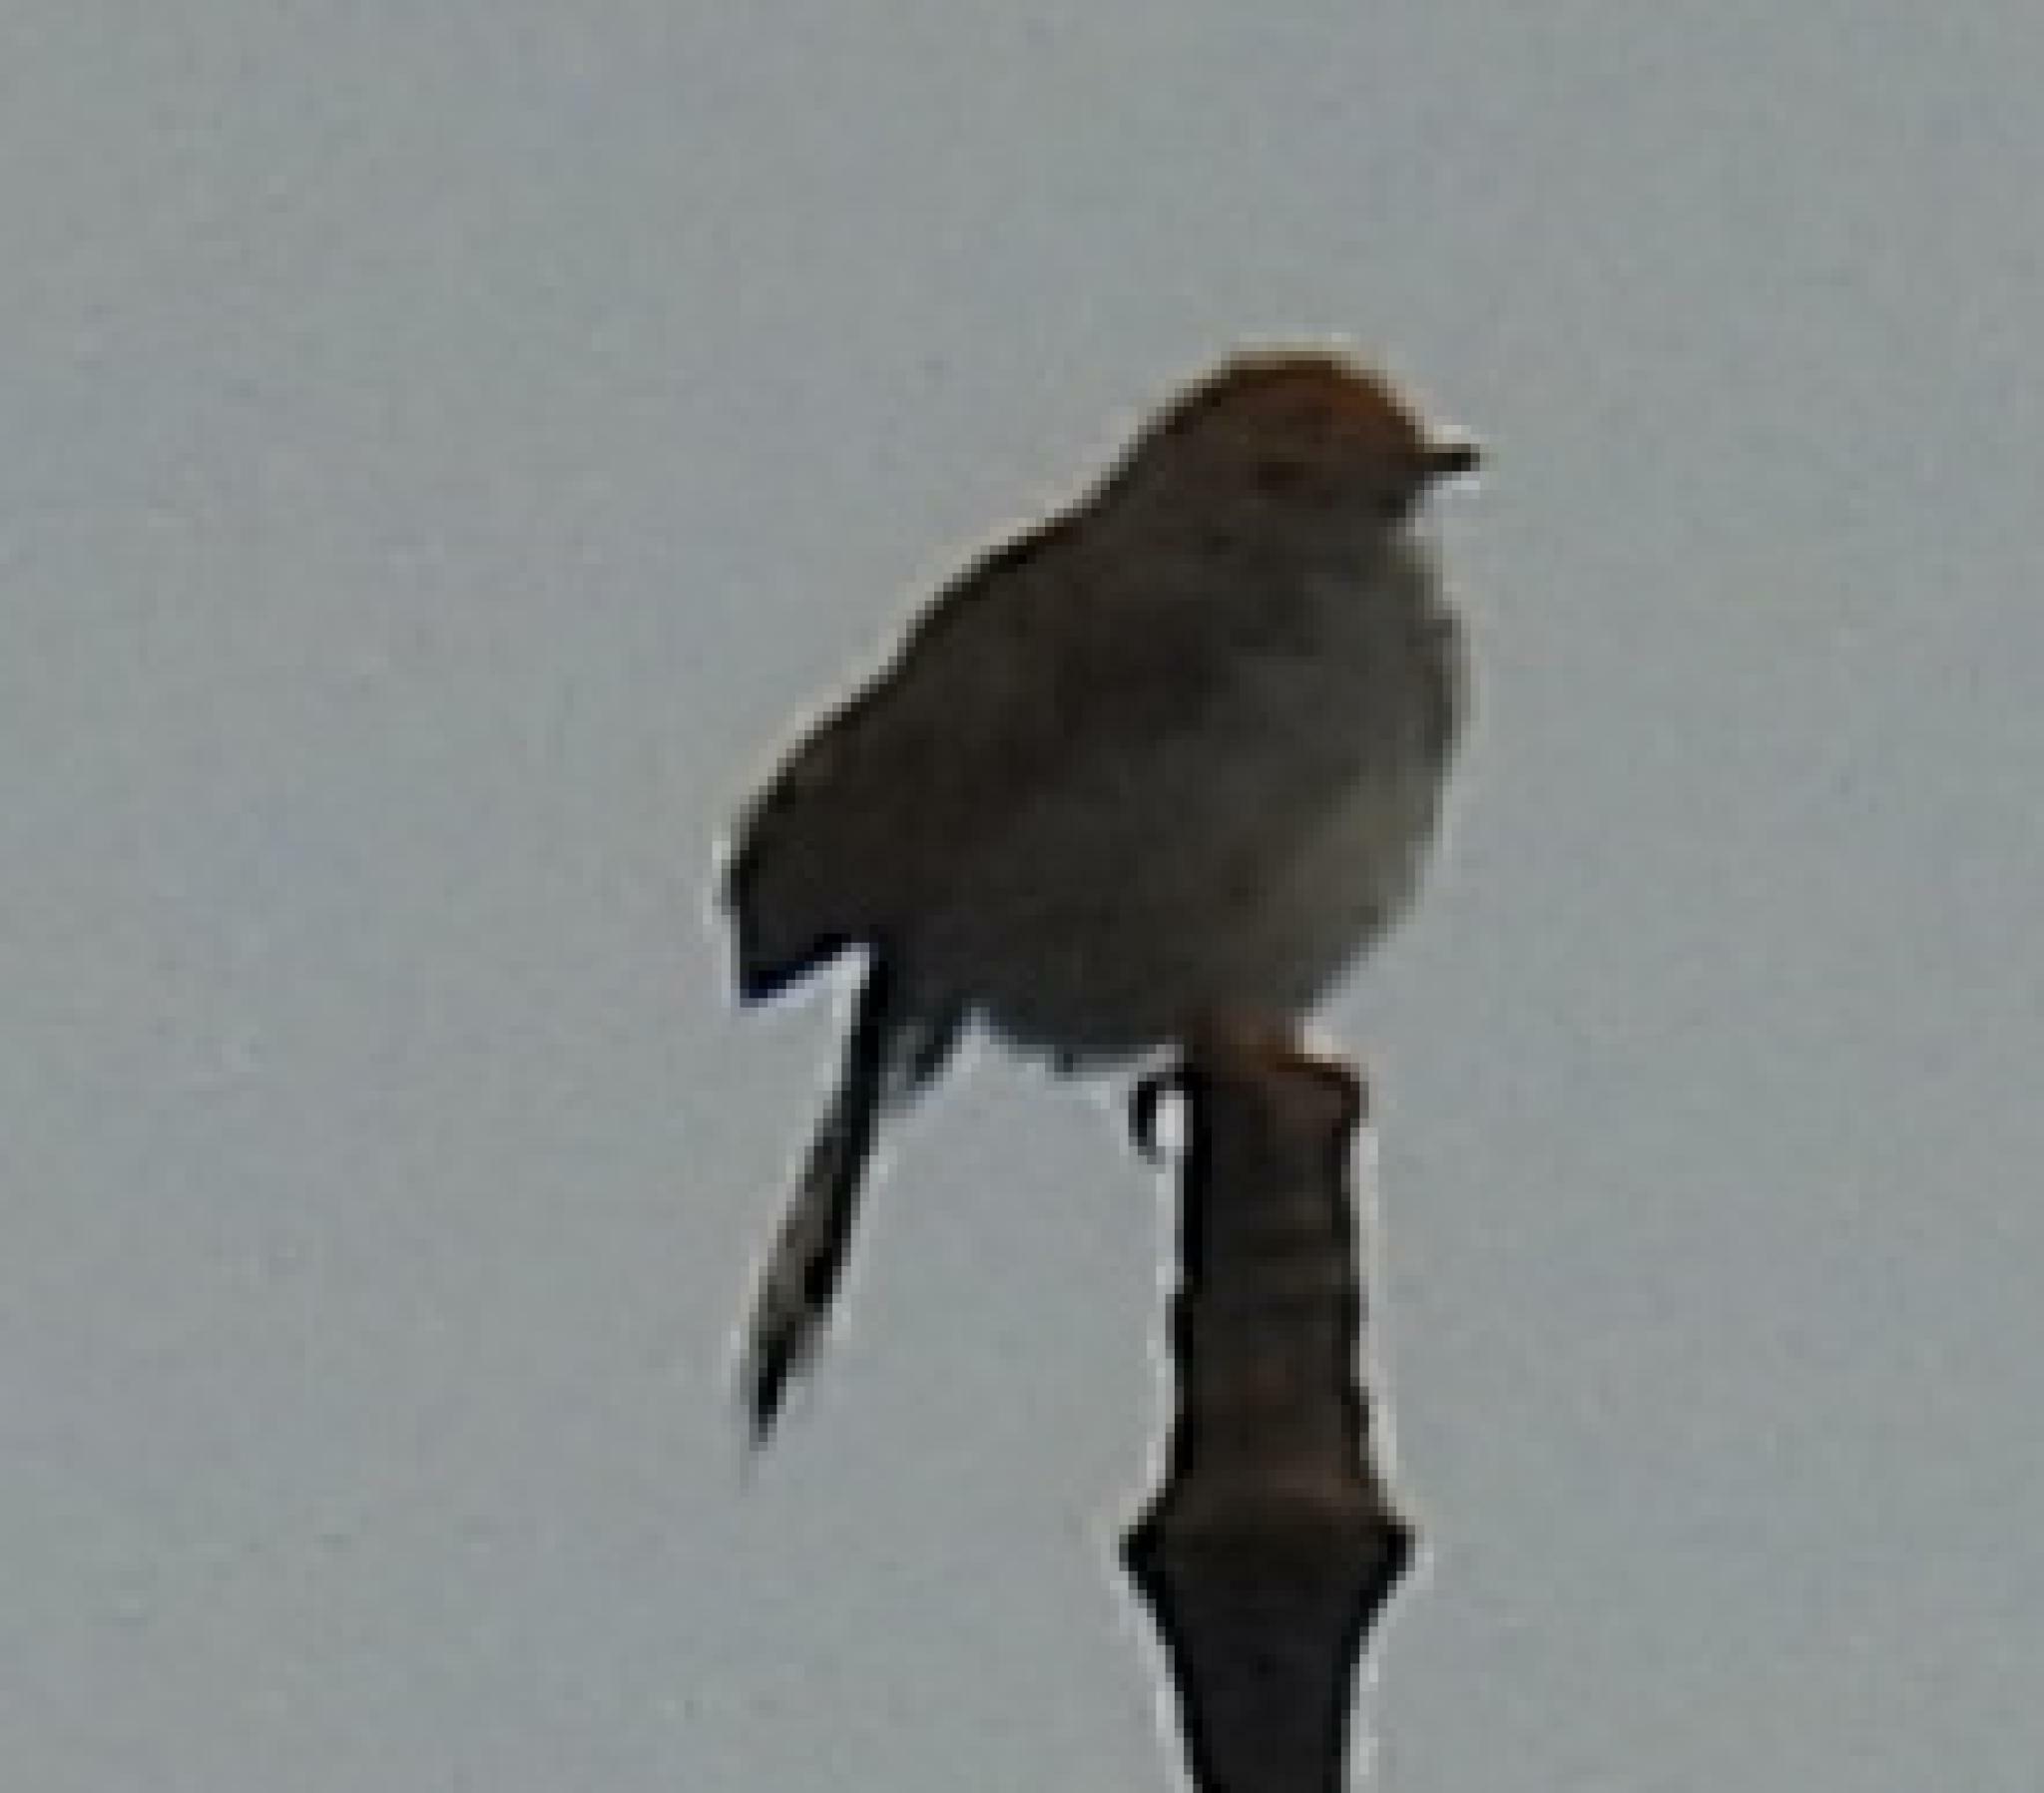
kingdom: Animalia
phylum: Chordata
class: Aves
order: Passeriformes
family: Cisticolidae
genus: Cisticola
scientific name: Cisticola fulvicapilla
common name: Neddicky
